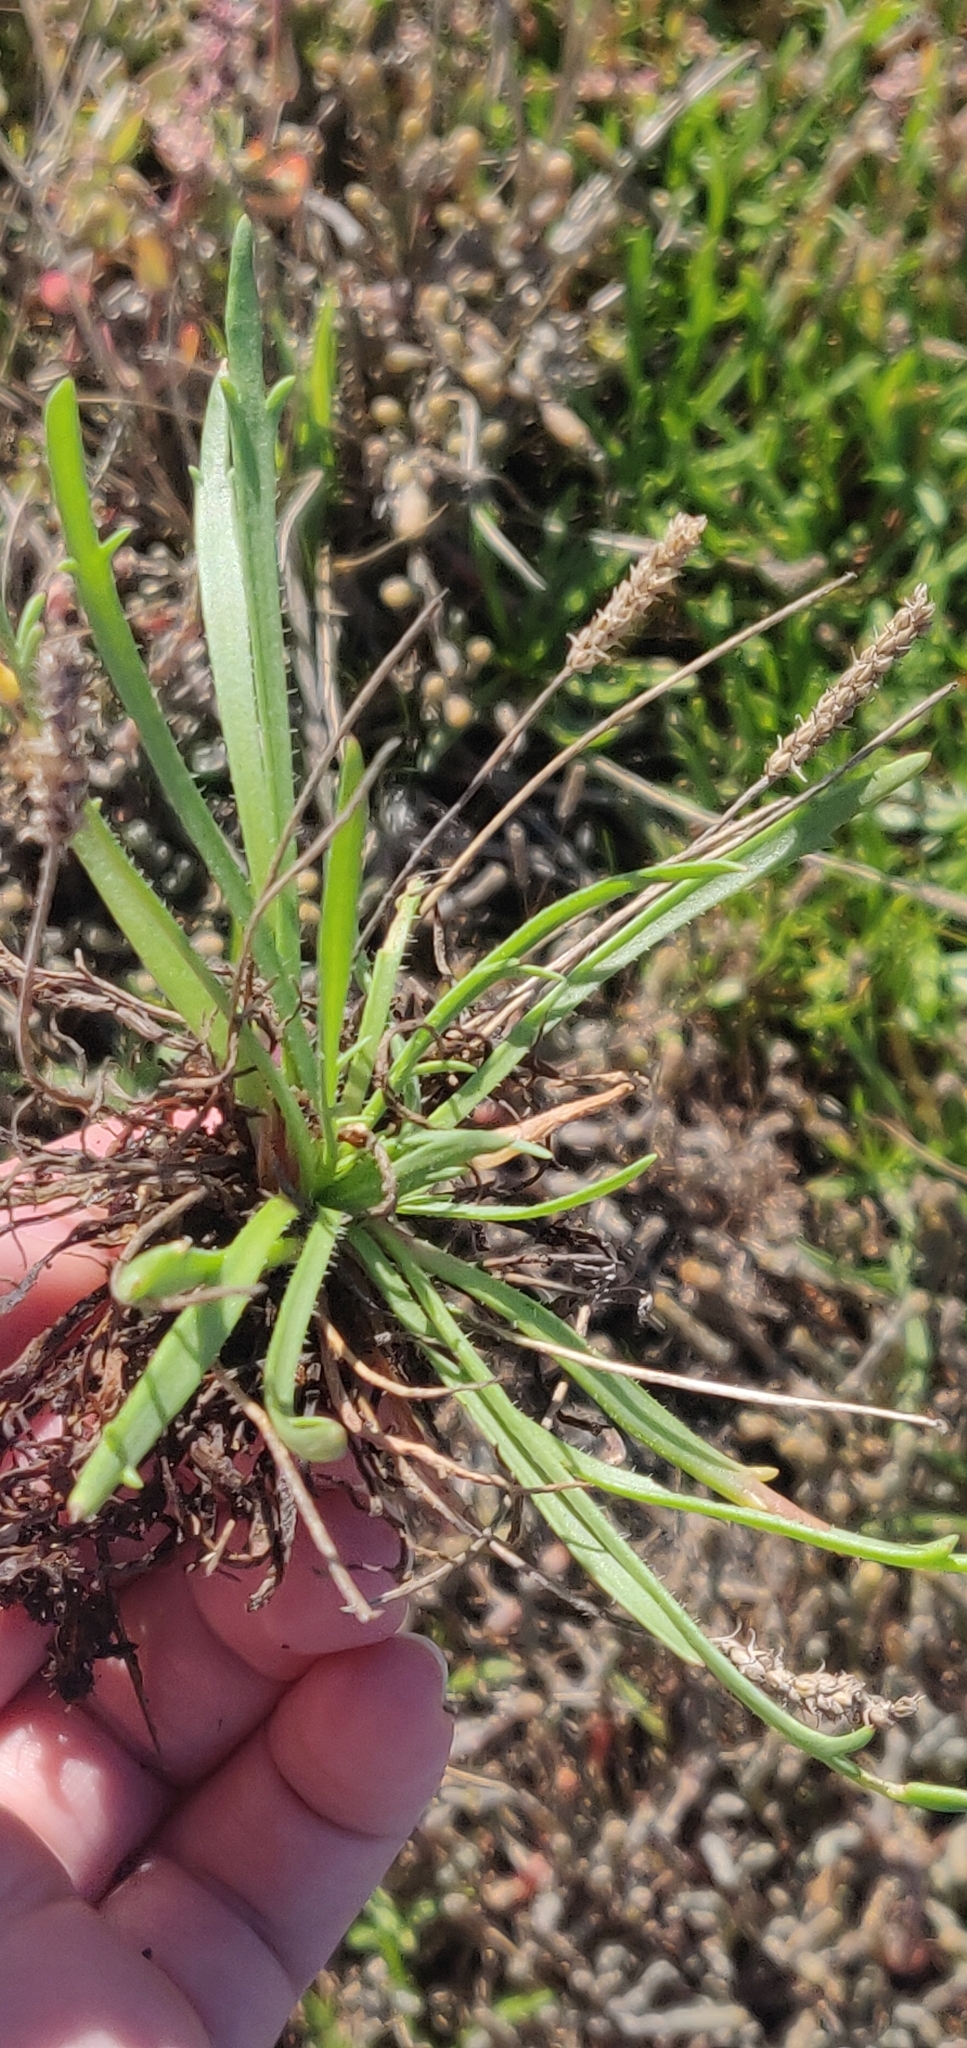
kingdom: Plantae
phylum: Tracheophyta
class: Magnoliopsida
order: Lamiales
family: Plantaginaceae
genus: Plantago
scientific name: Plantago coronopus
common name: Buck's-horn plantain
